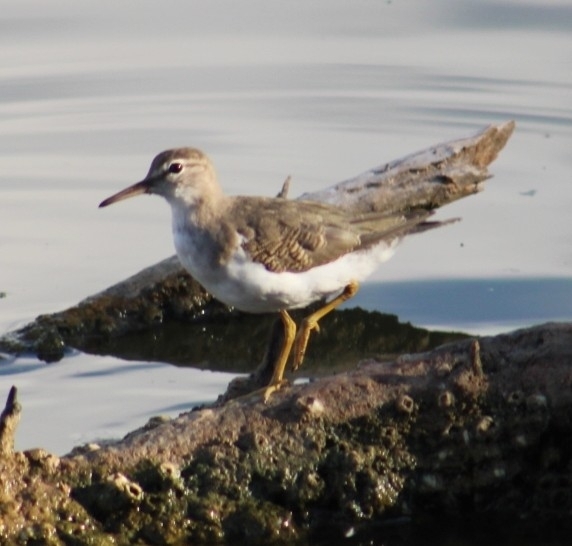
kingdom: Animalia
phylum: Chordata
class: Aves
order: Charadriiformes
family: Scolopacidae
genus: Actitis
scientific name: Actitis macularius
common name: Spotted sandpiper
